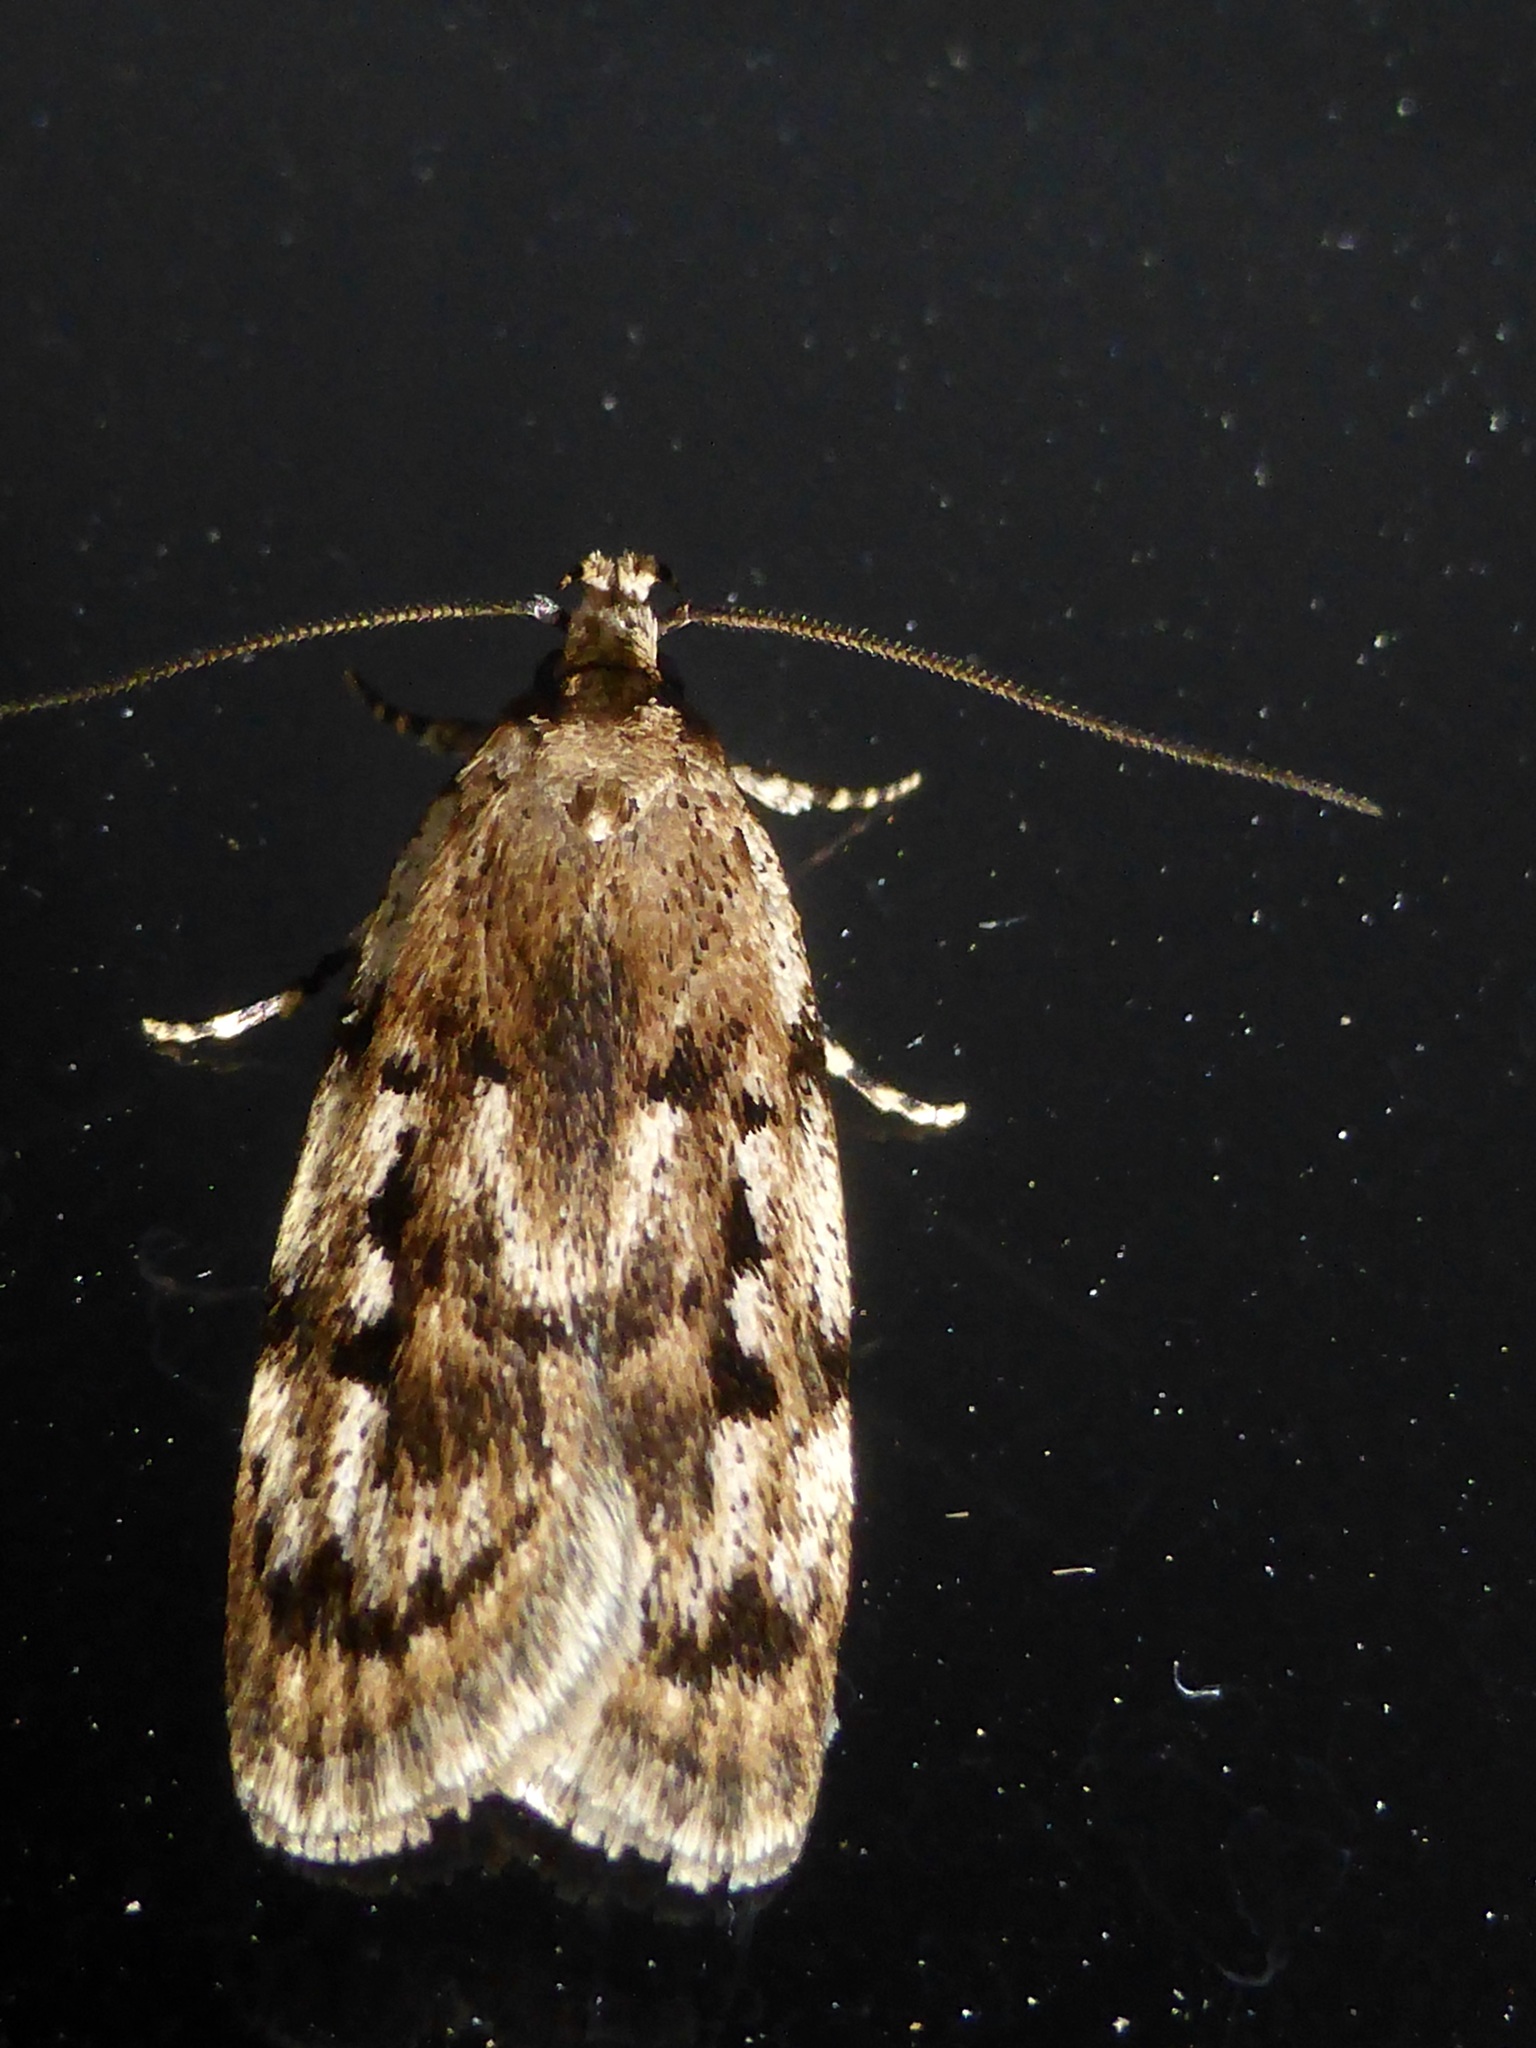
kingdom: Animalia
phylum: Arthropoda
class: Insecta
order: Lepidoptera
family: Oecophoridae
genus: Barea
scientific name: Barea exarcha
